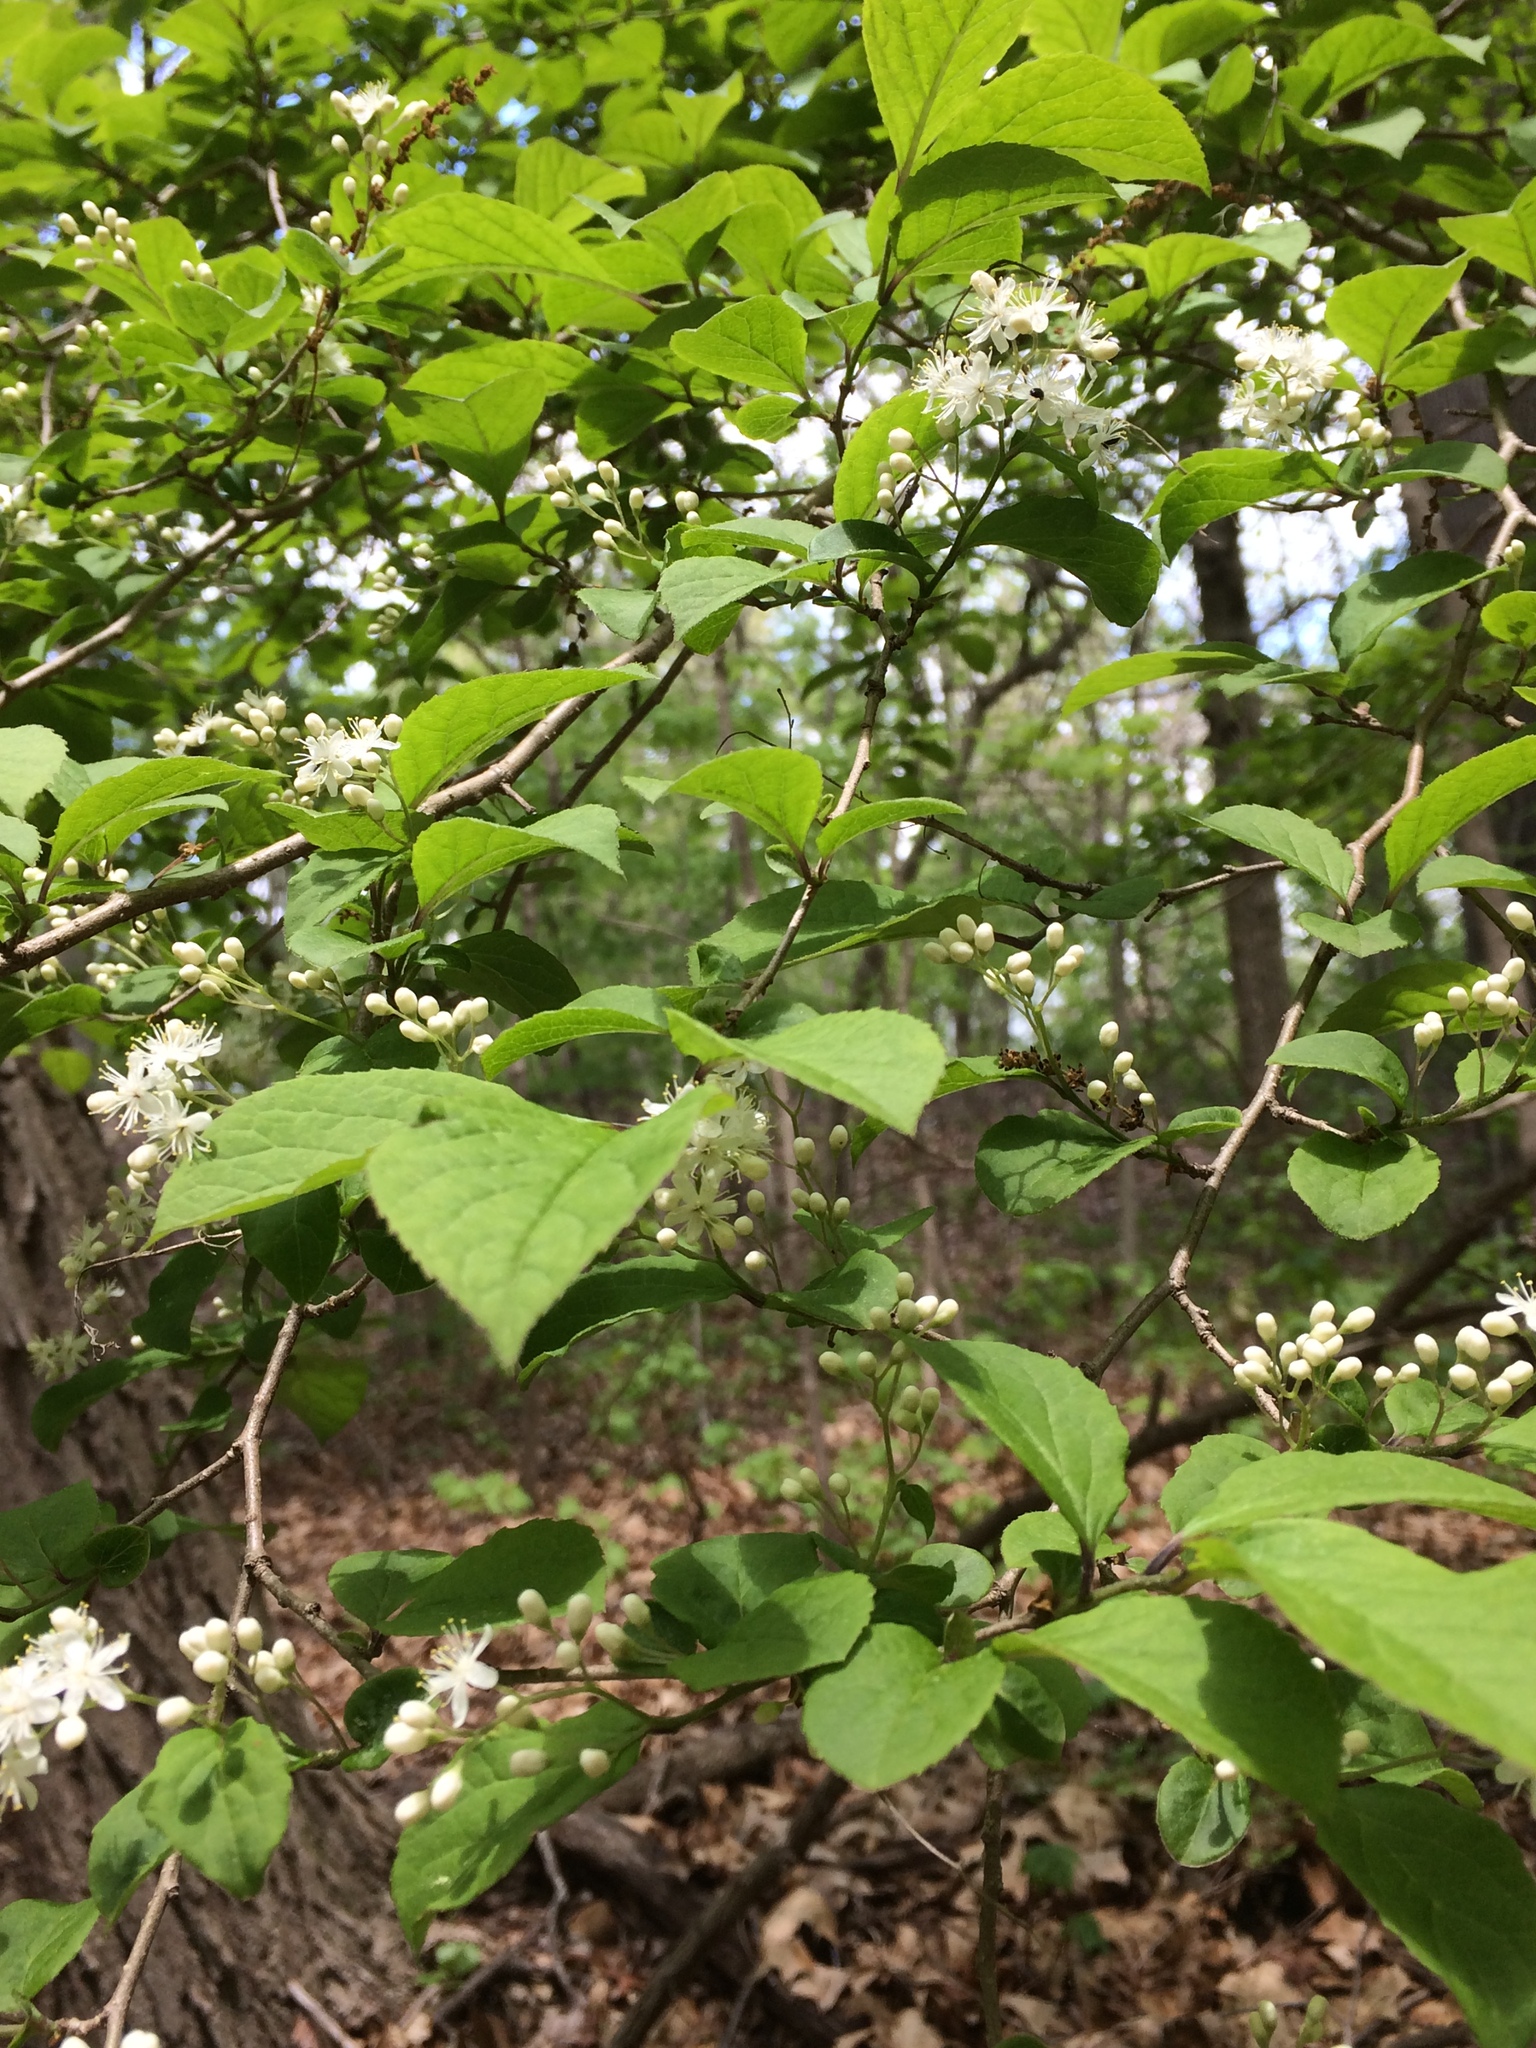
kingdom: Plantae
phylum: Tracheophyta
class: Magnoliopsida
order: Ericales
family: Symplocaceae
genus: Symplocos
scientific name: Symplocos paniculata
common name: Sapphire-berry
